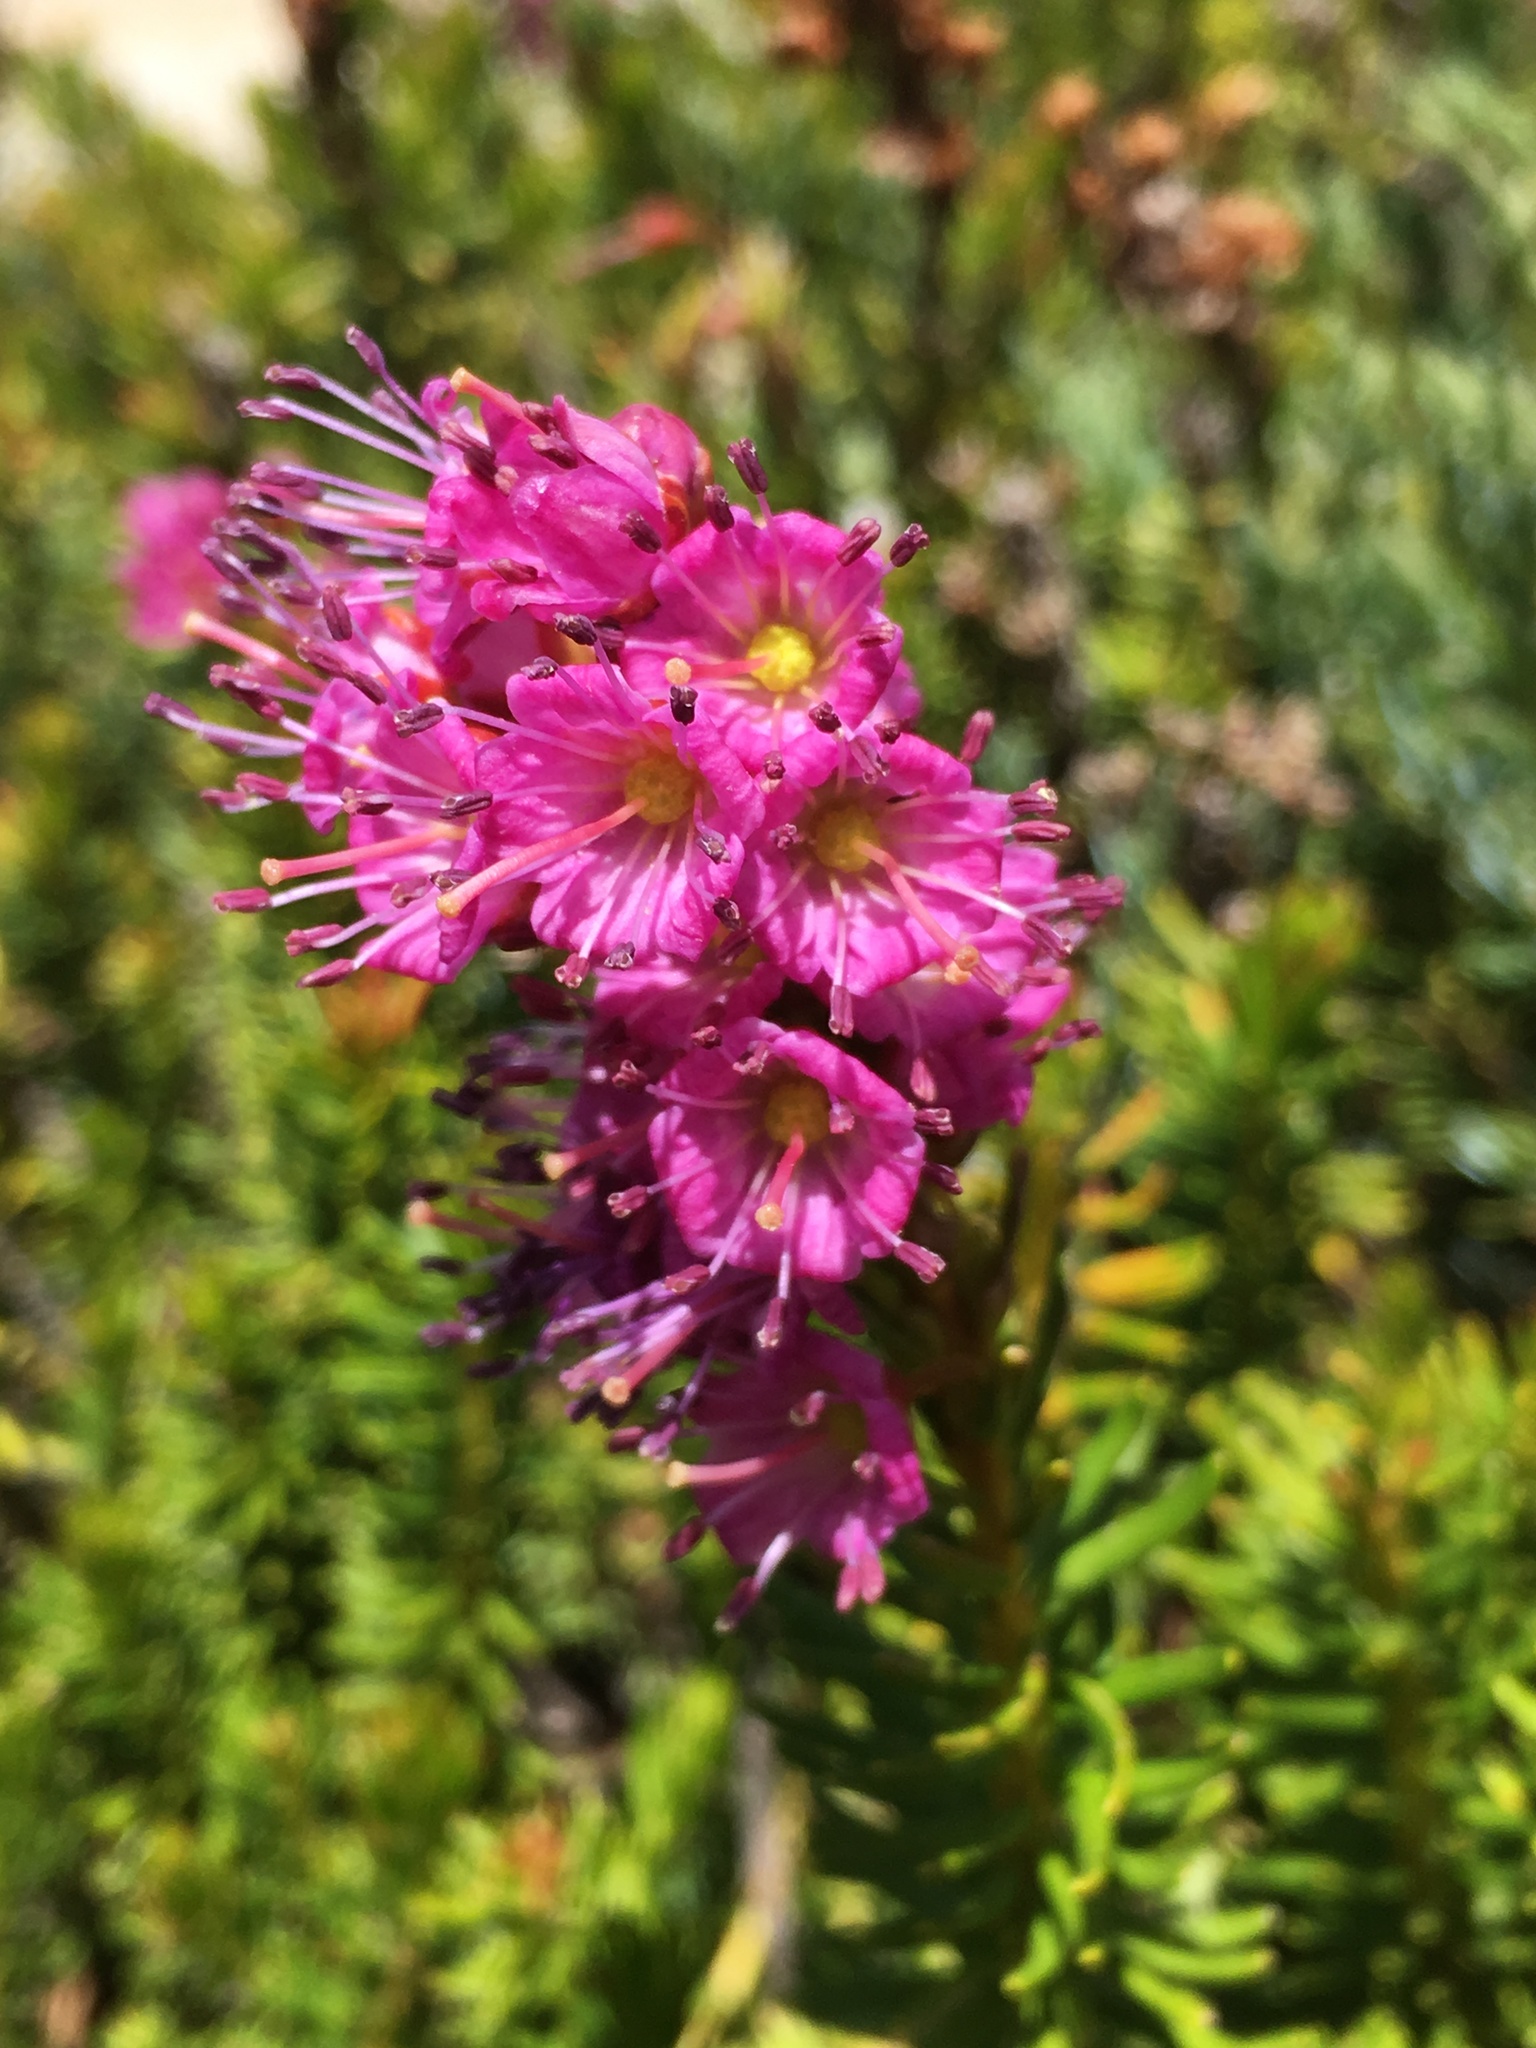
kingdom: Plantae
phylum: Tracheophyta
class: Magnoliopsida
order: Ericales
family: Ericaceae
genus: Phyllodoce
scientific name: Phyllodoce breweri
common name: Brewer's mountain-heather
